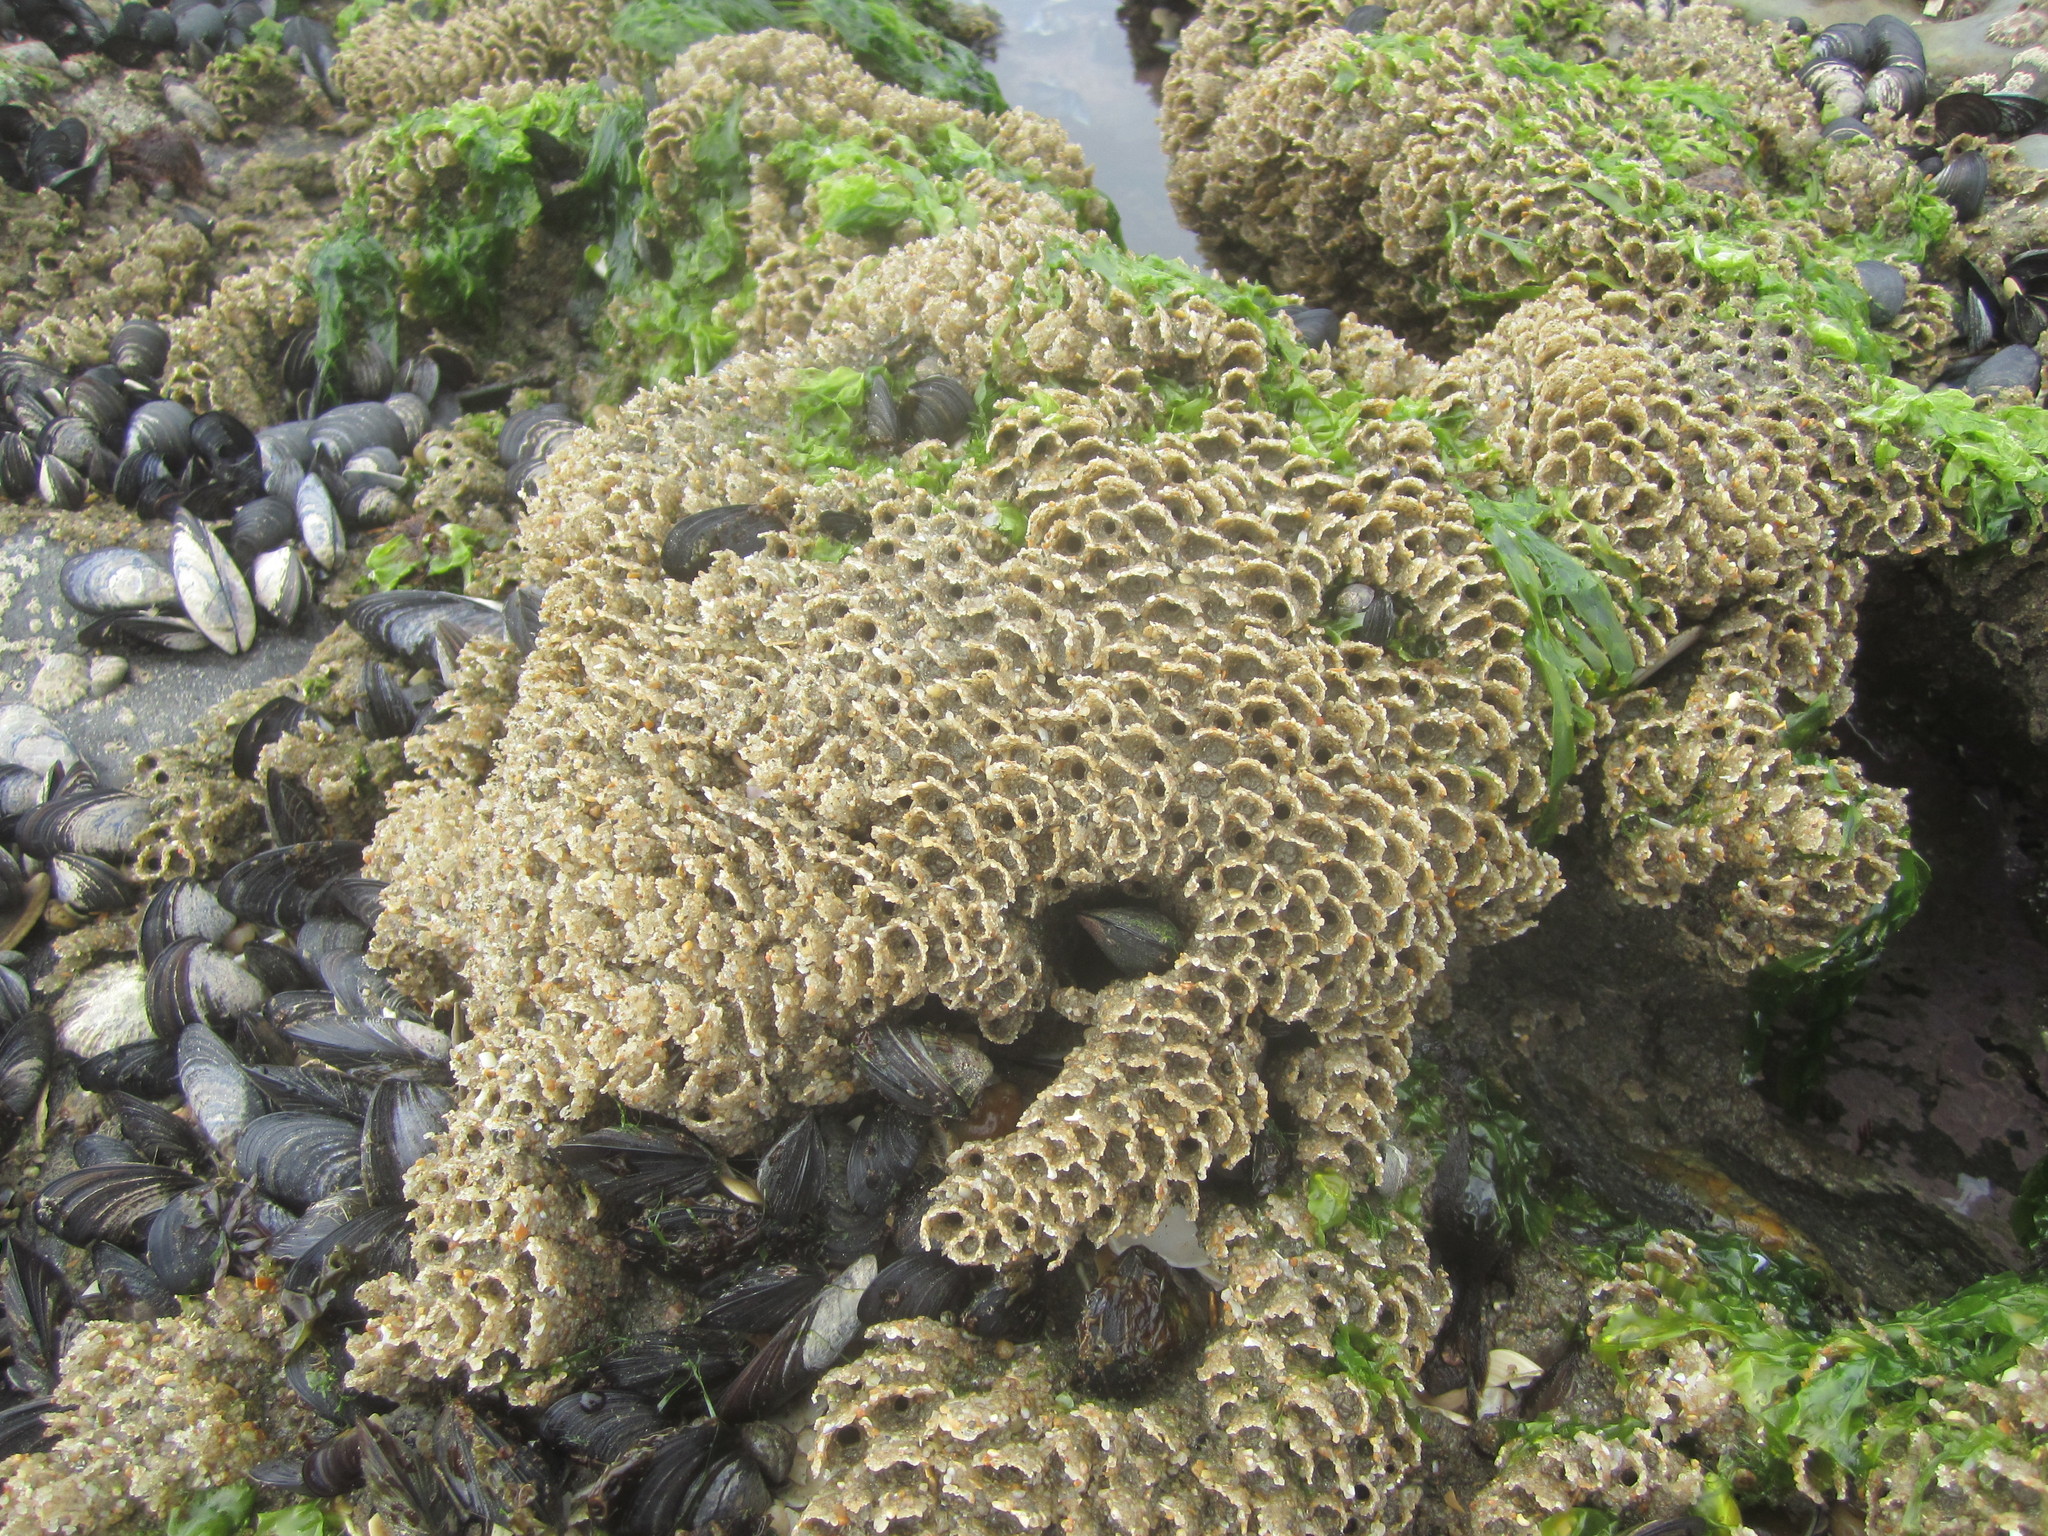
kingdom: Animalia
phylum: Mollusca
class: Bivalvia
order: Mytilida
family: Mytilidae
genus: Mytilus
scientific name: Mytilus galloprovincialis
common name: Mediterranean mussel
